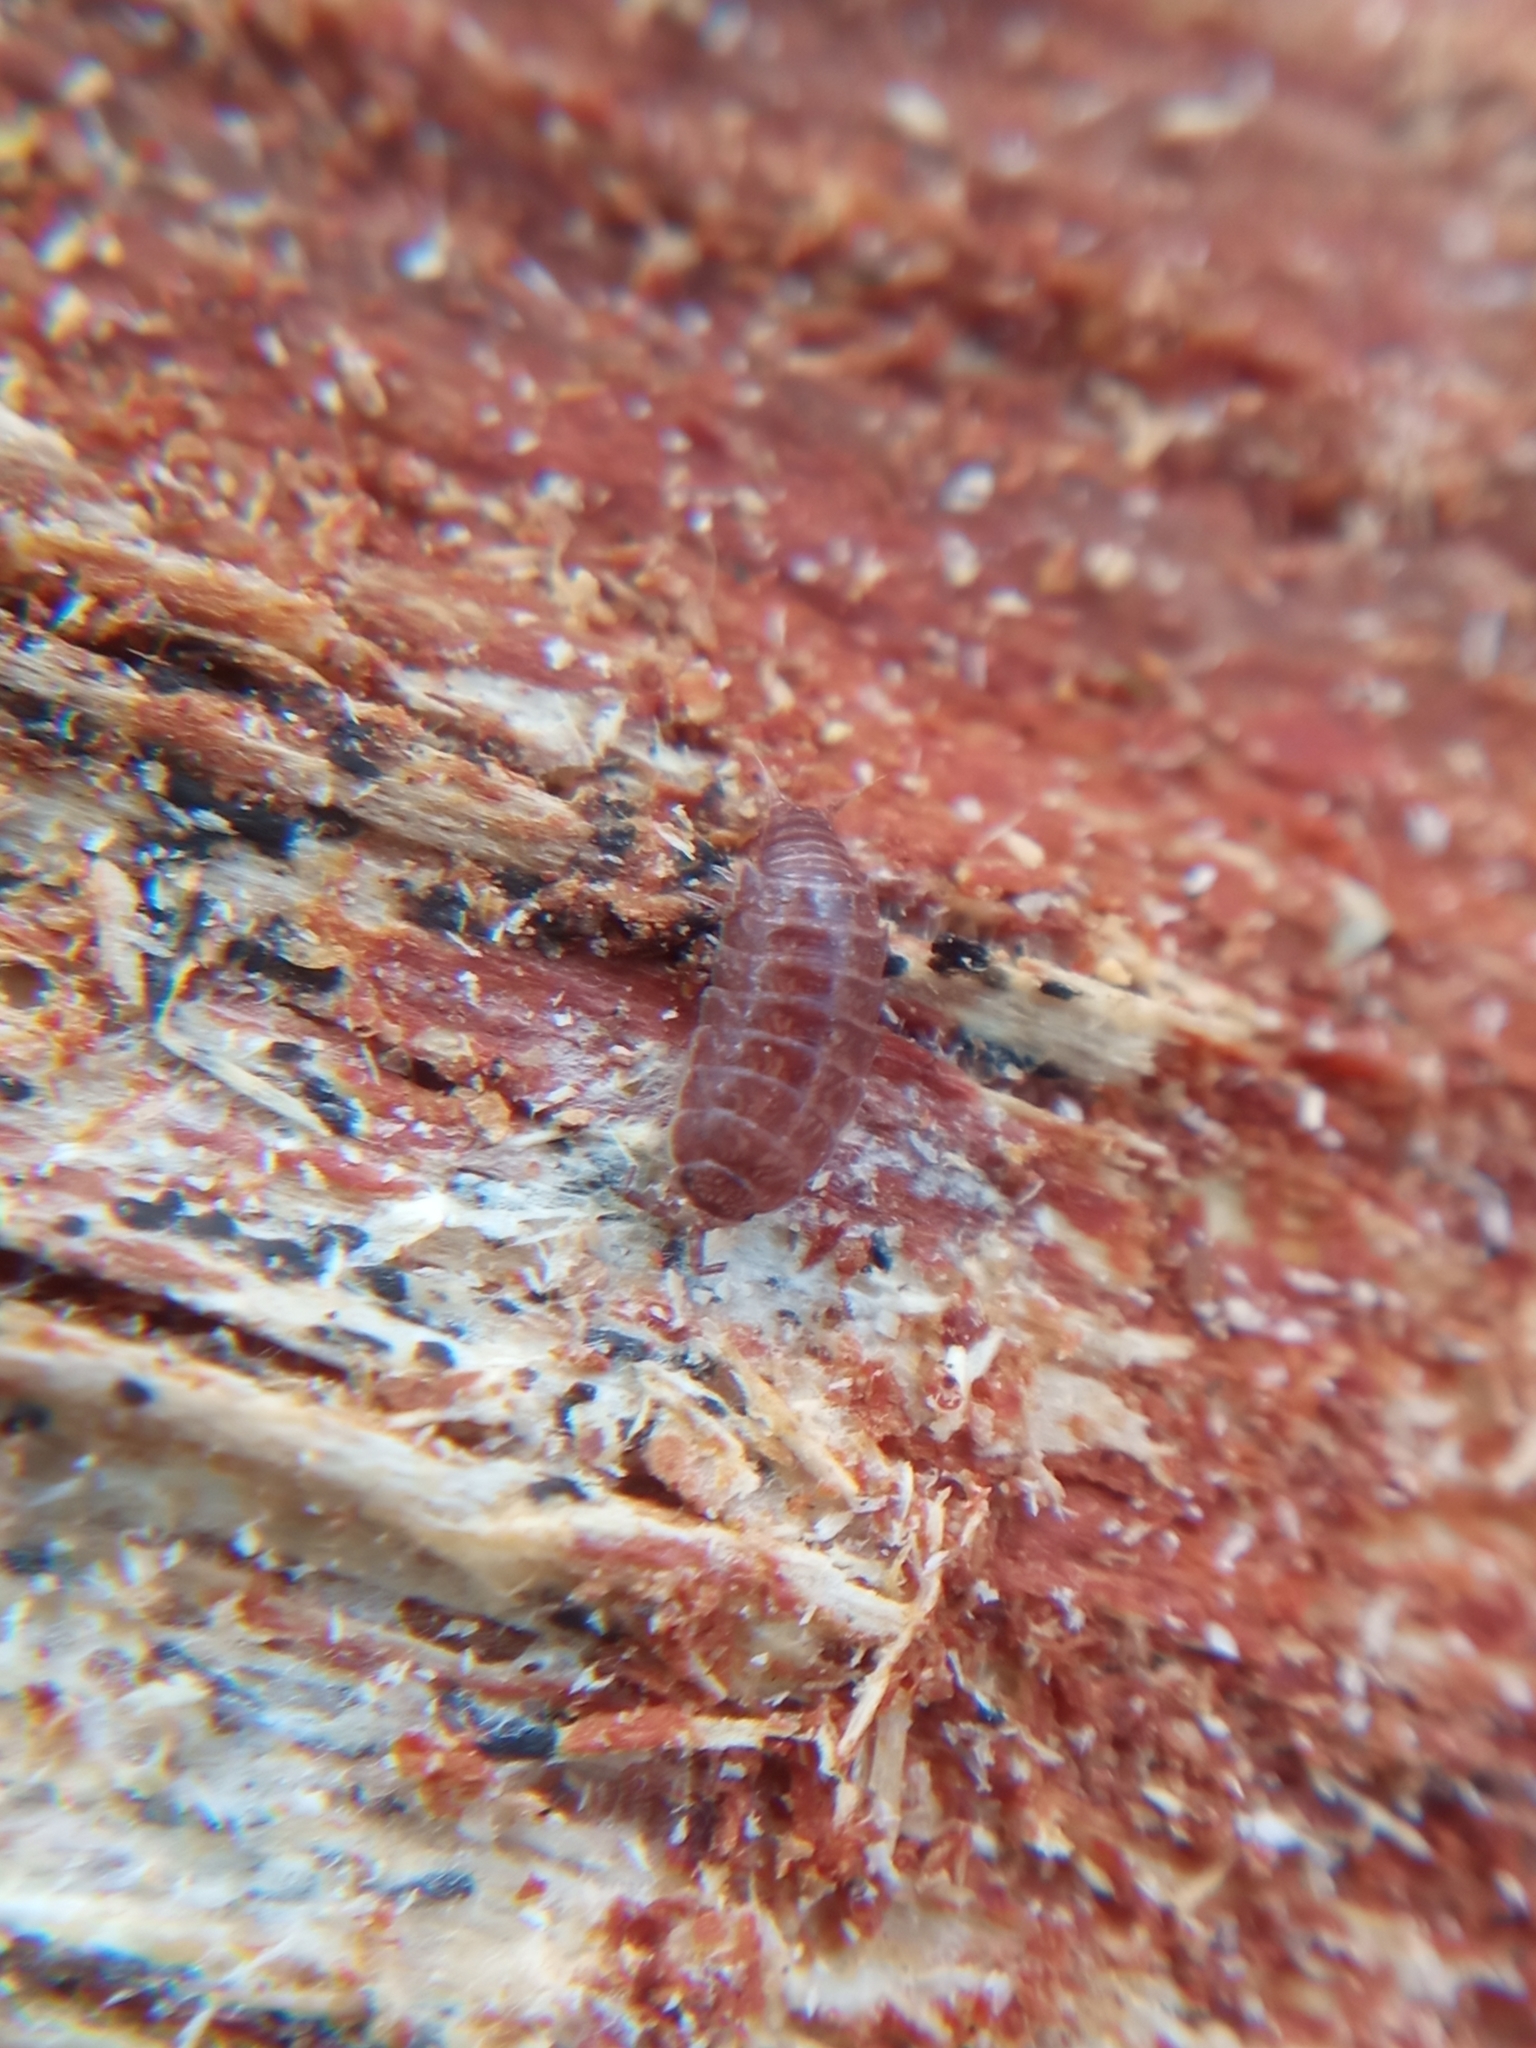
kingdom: Animalia
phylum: Arthropoda
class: Malacostraca
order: Isopoda
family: Trichoniscidae
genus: Trichoniscus
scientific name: Trichoniscus
